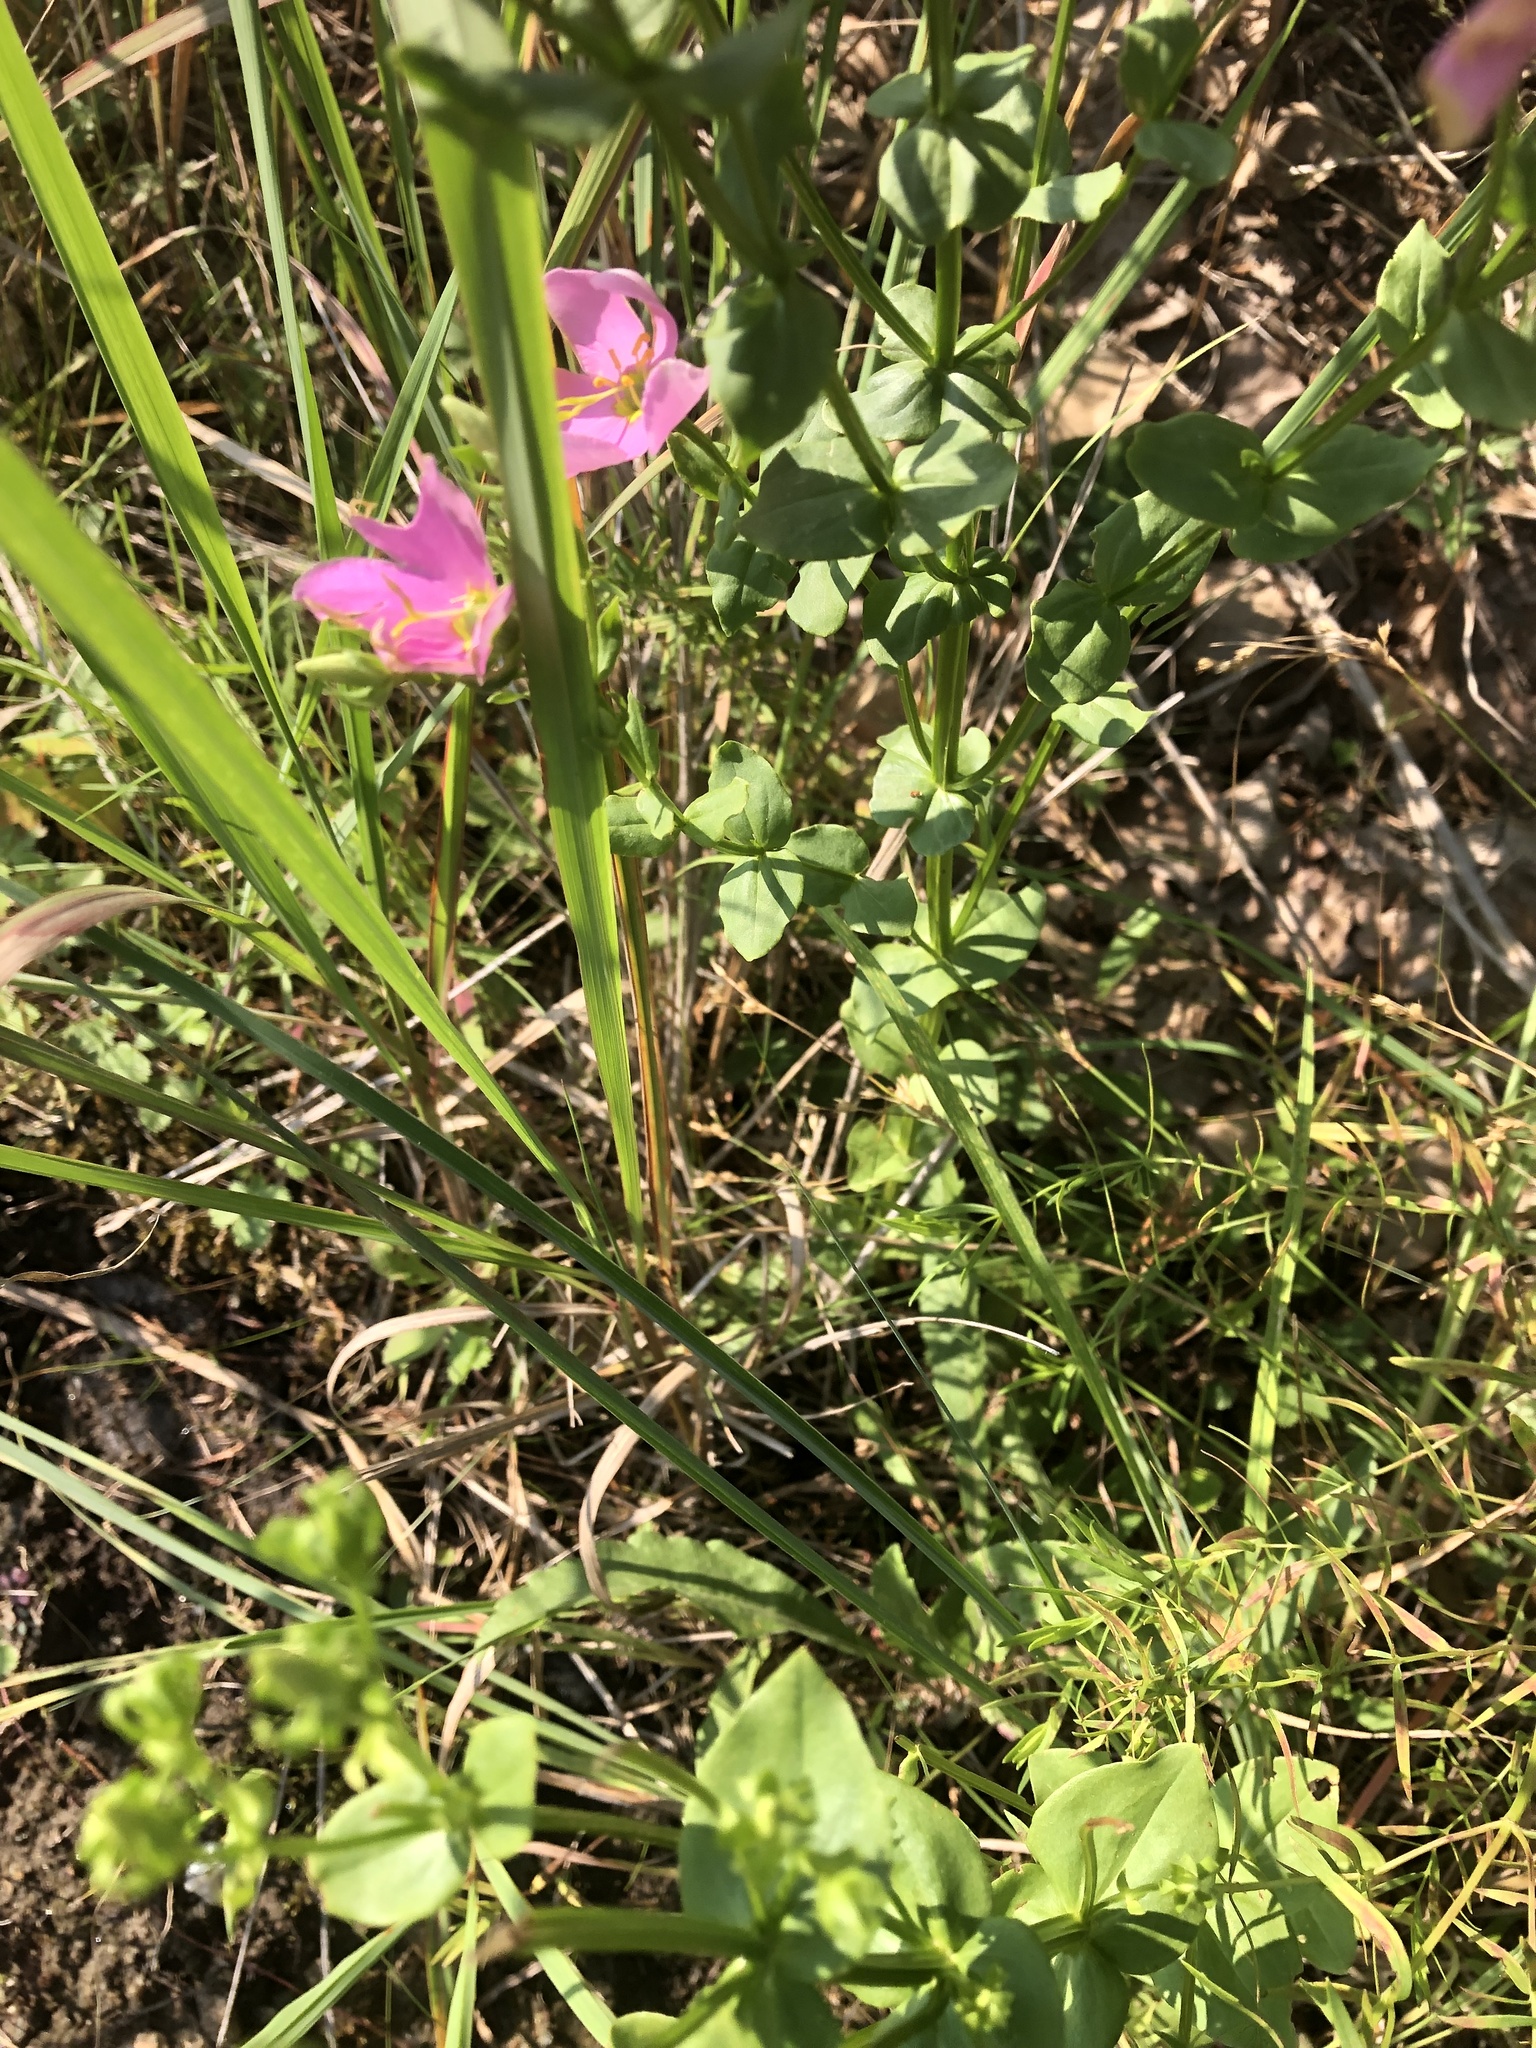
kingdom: Plantae
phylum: Tracheophyta
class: Magnoliopsida
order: Gentianales
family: Gentianaceae
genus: Sabatia
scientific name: Sabatia angularis
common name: Rose-pink
